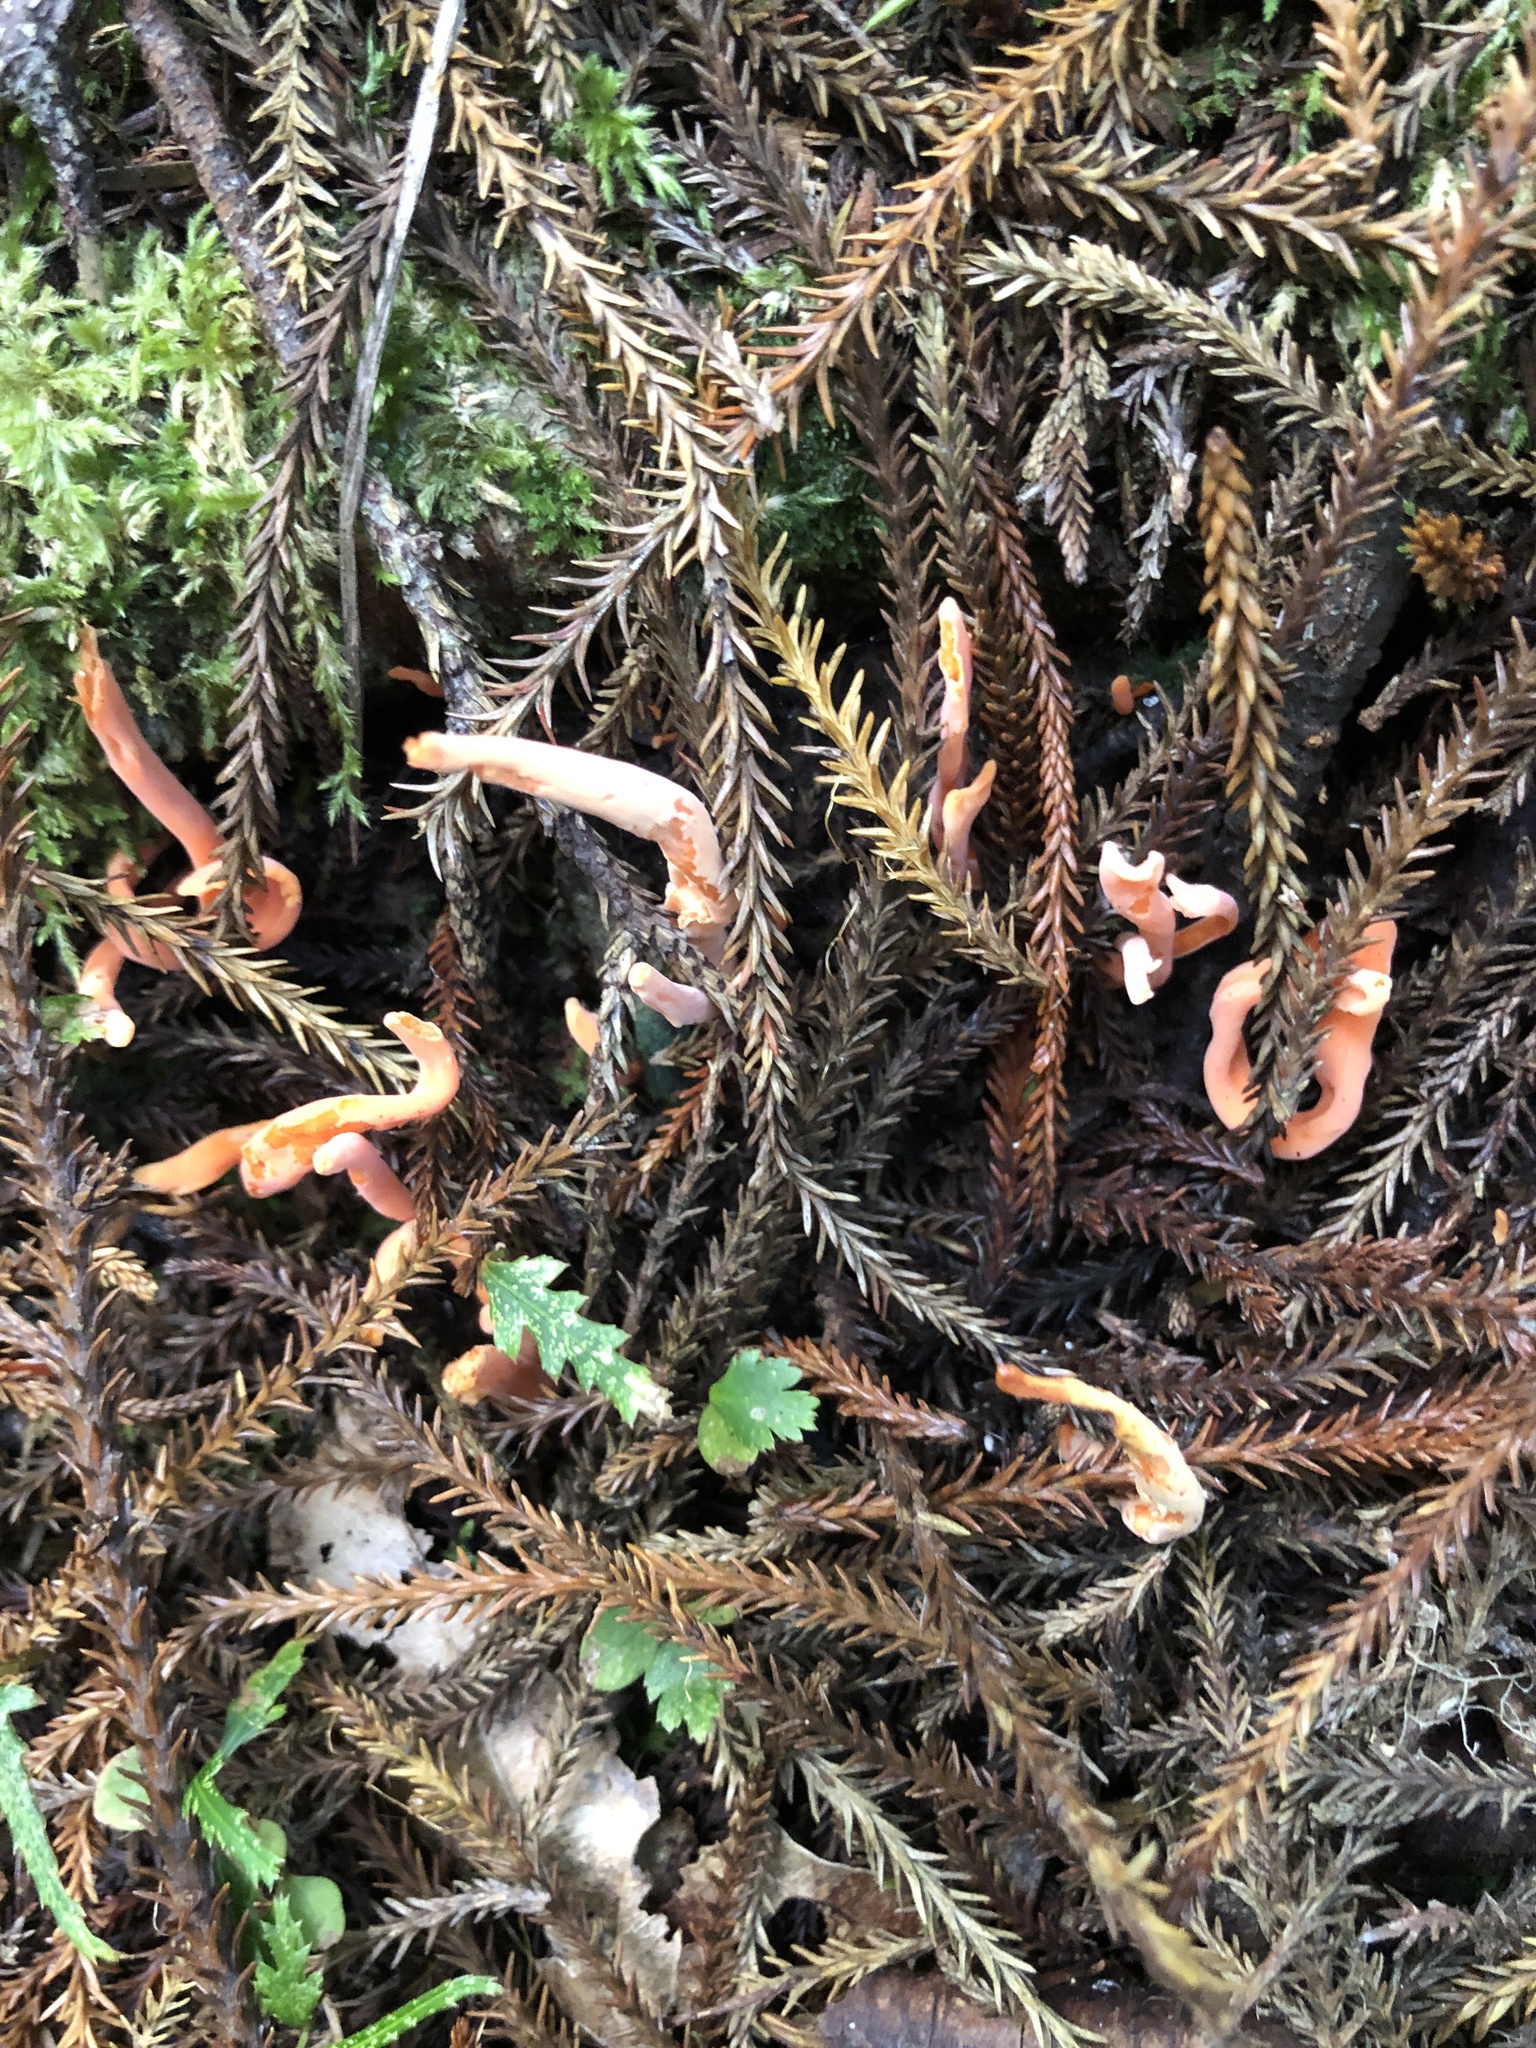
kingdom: Fungi
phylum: Basidiomycota
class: Agaricomycetes
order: Agaricales
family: Clavariaceae
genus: Clavulinopsis
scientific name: Clavulinopsis sulcata
